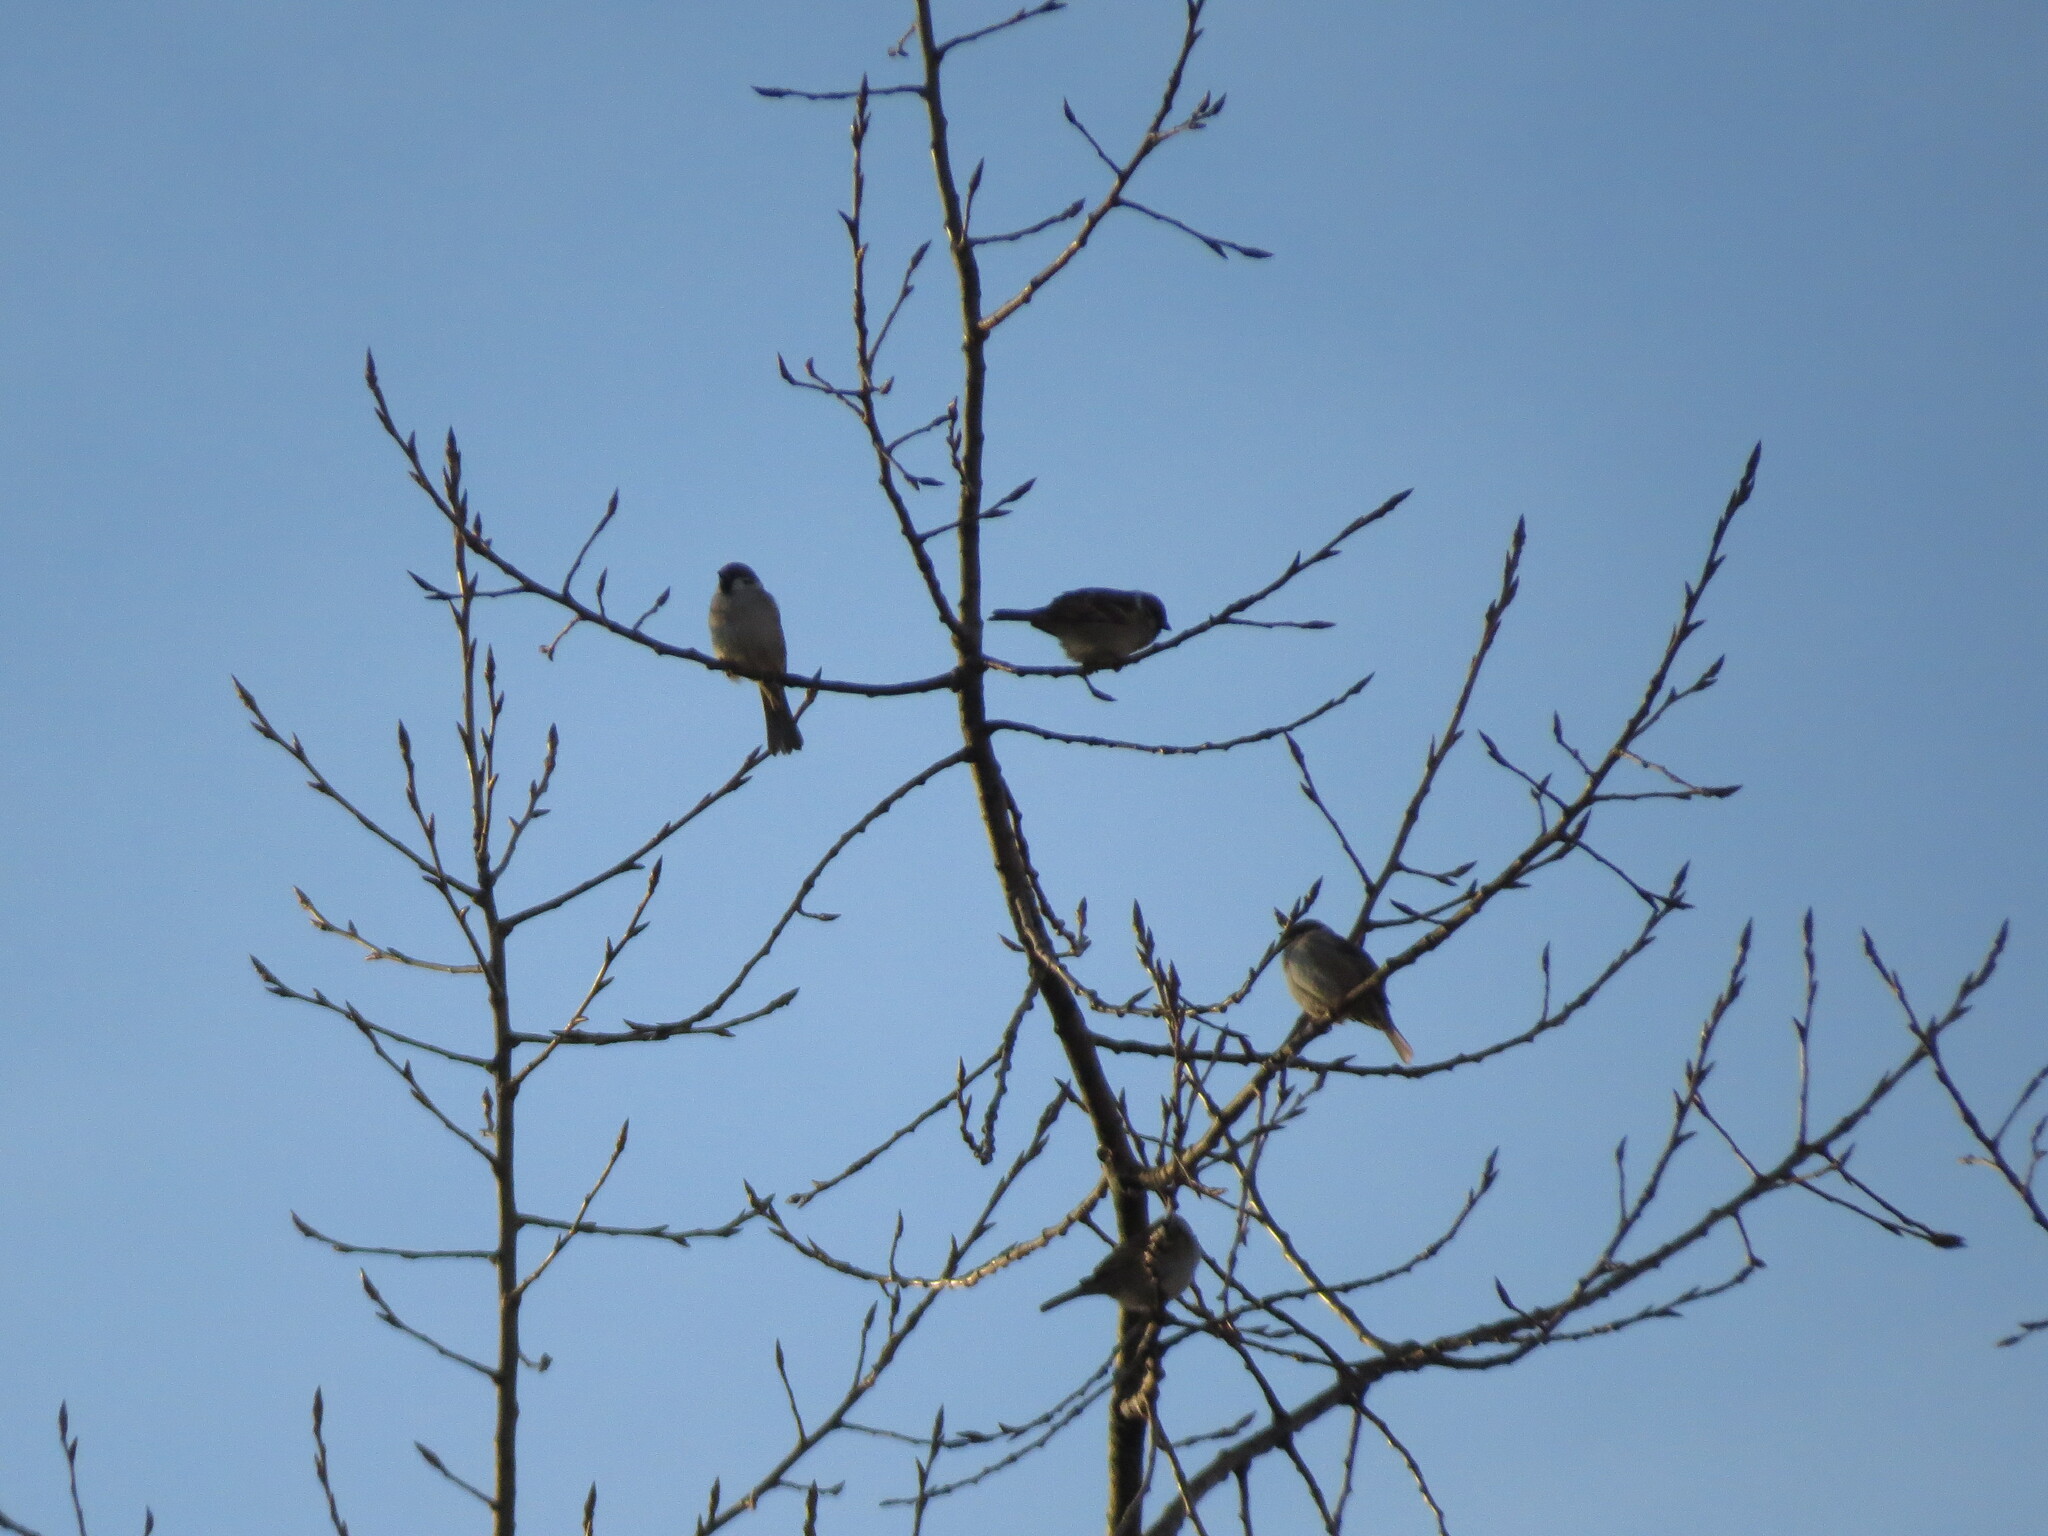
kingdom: Animalia
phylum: Chordata
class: Aves
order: Passeriformes
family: Passeridae
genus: Passer
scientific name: Passer montanus
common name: Eurasian tree sparrow
